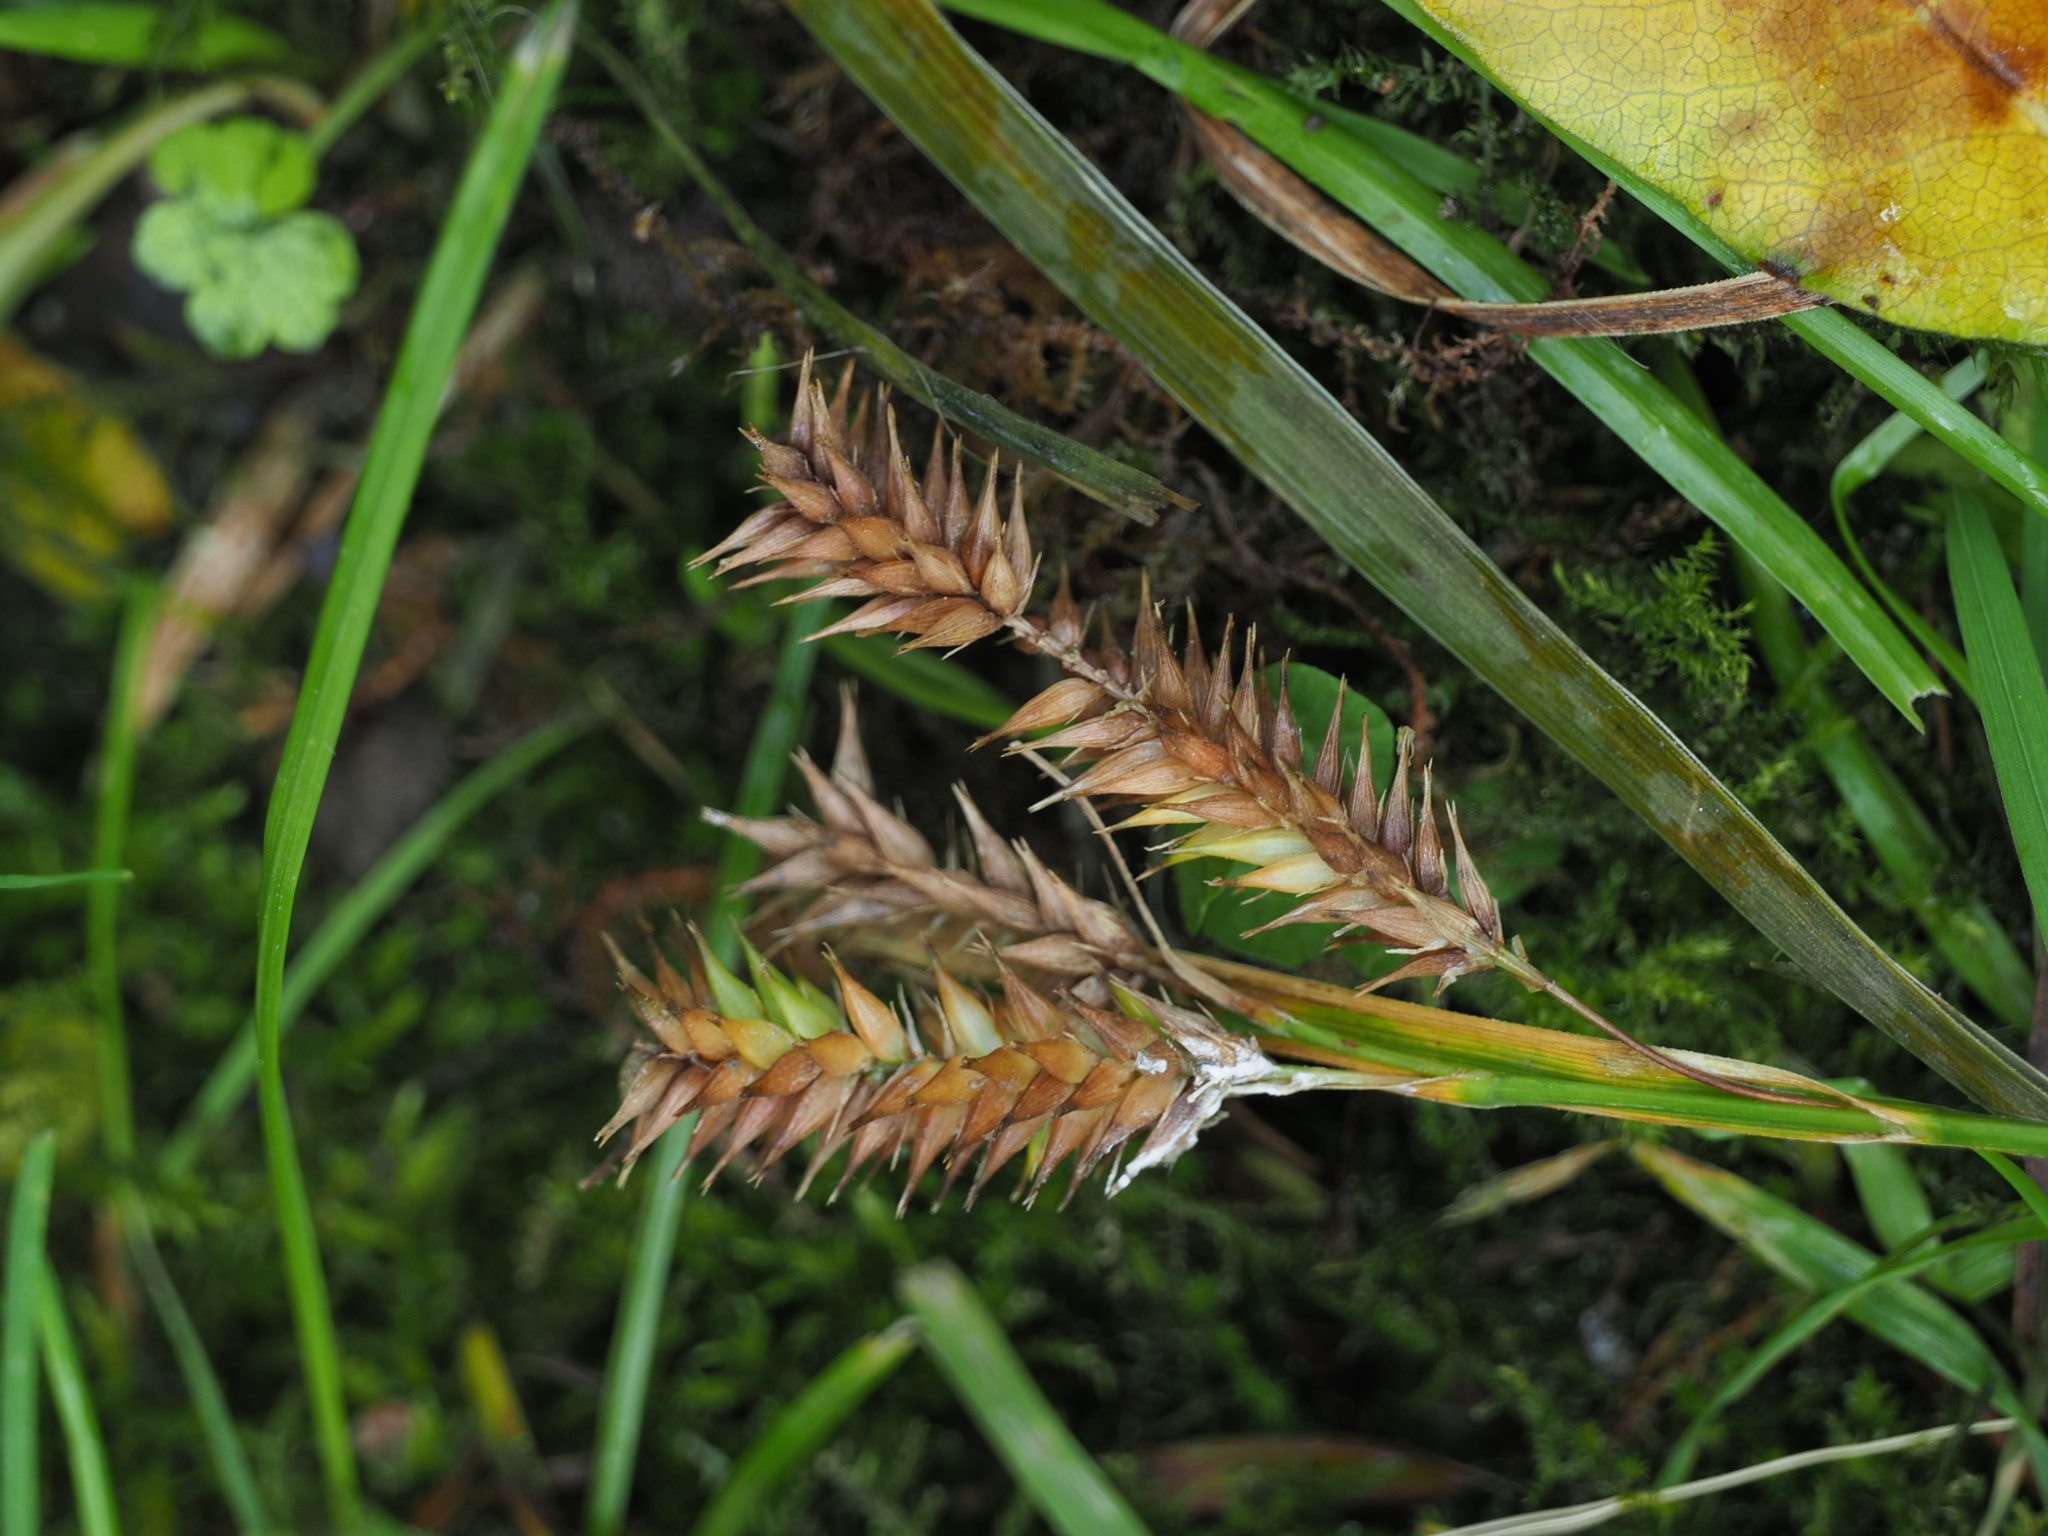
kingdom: Plantae
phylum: Tracheophyta
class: Liliopsida
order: Poales
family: Cyperaceae
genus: Carex
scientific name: Carex forsteri
